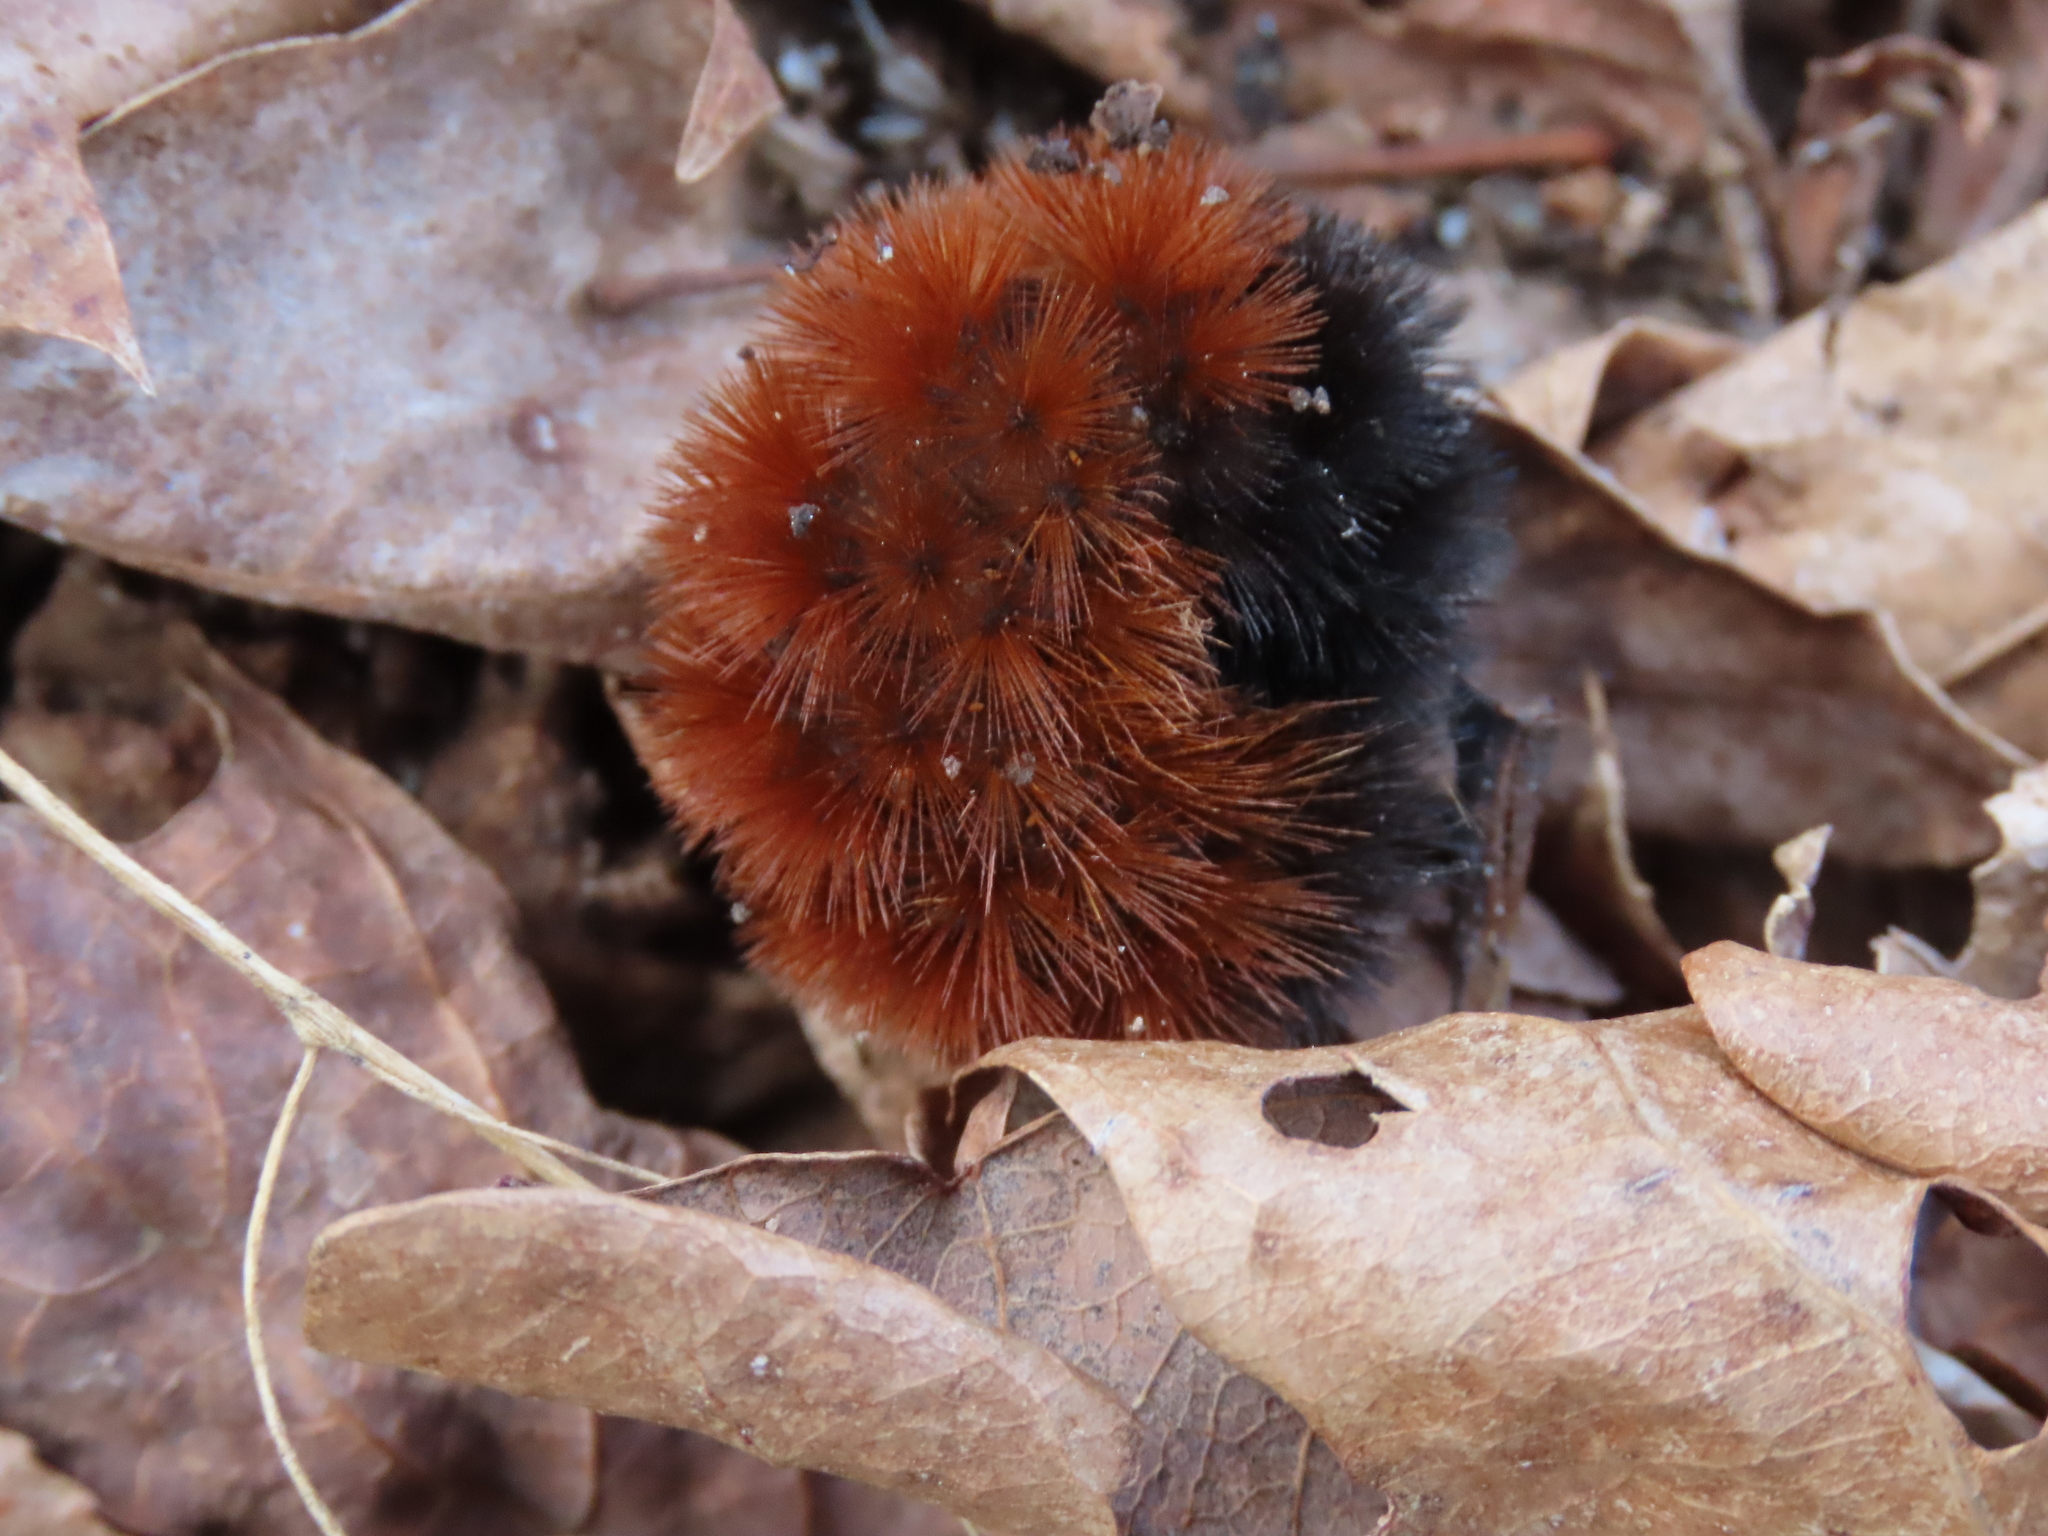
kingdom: Animalia
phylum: Arthropoda
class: Insecta
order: Lepidoptera
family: Erebidae
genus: Pyrrharctia
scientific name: Pyrrharctia isabella
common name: Isabella tiger moth
